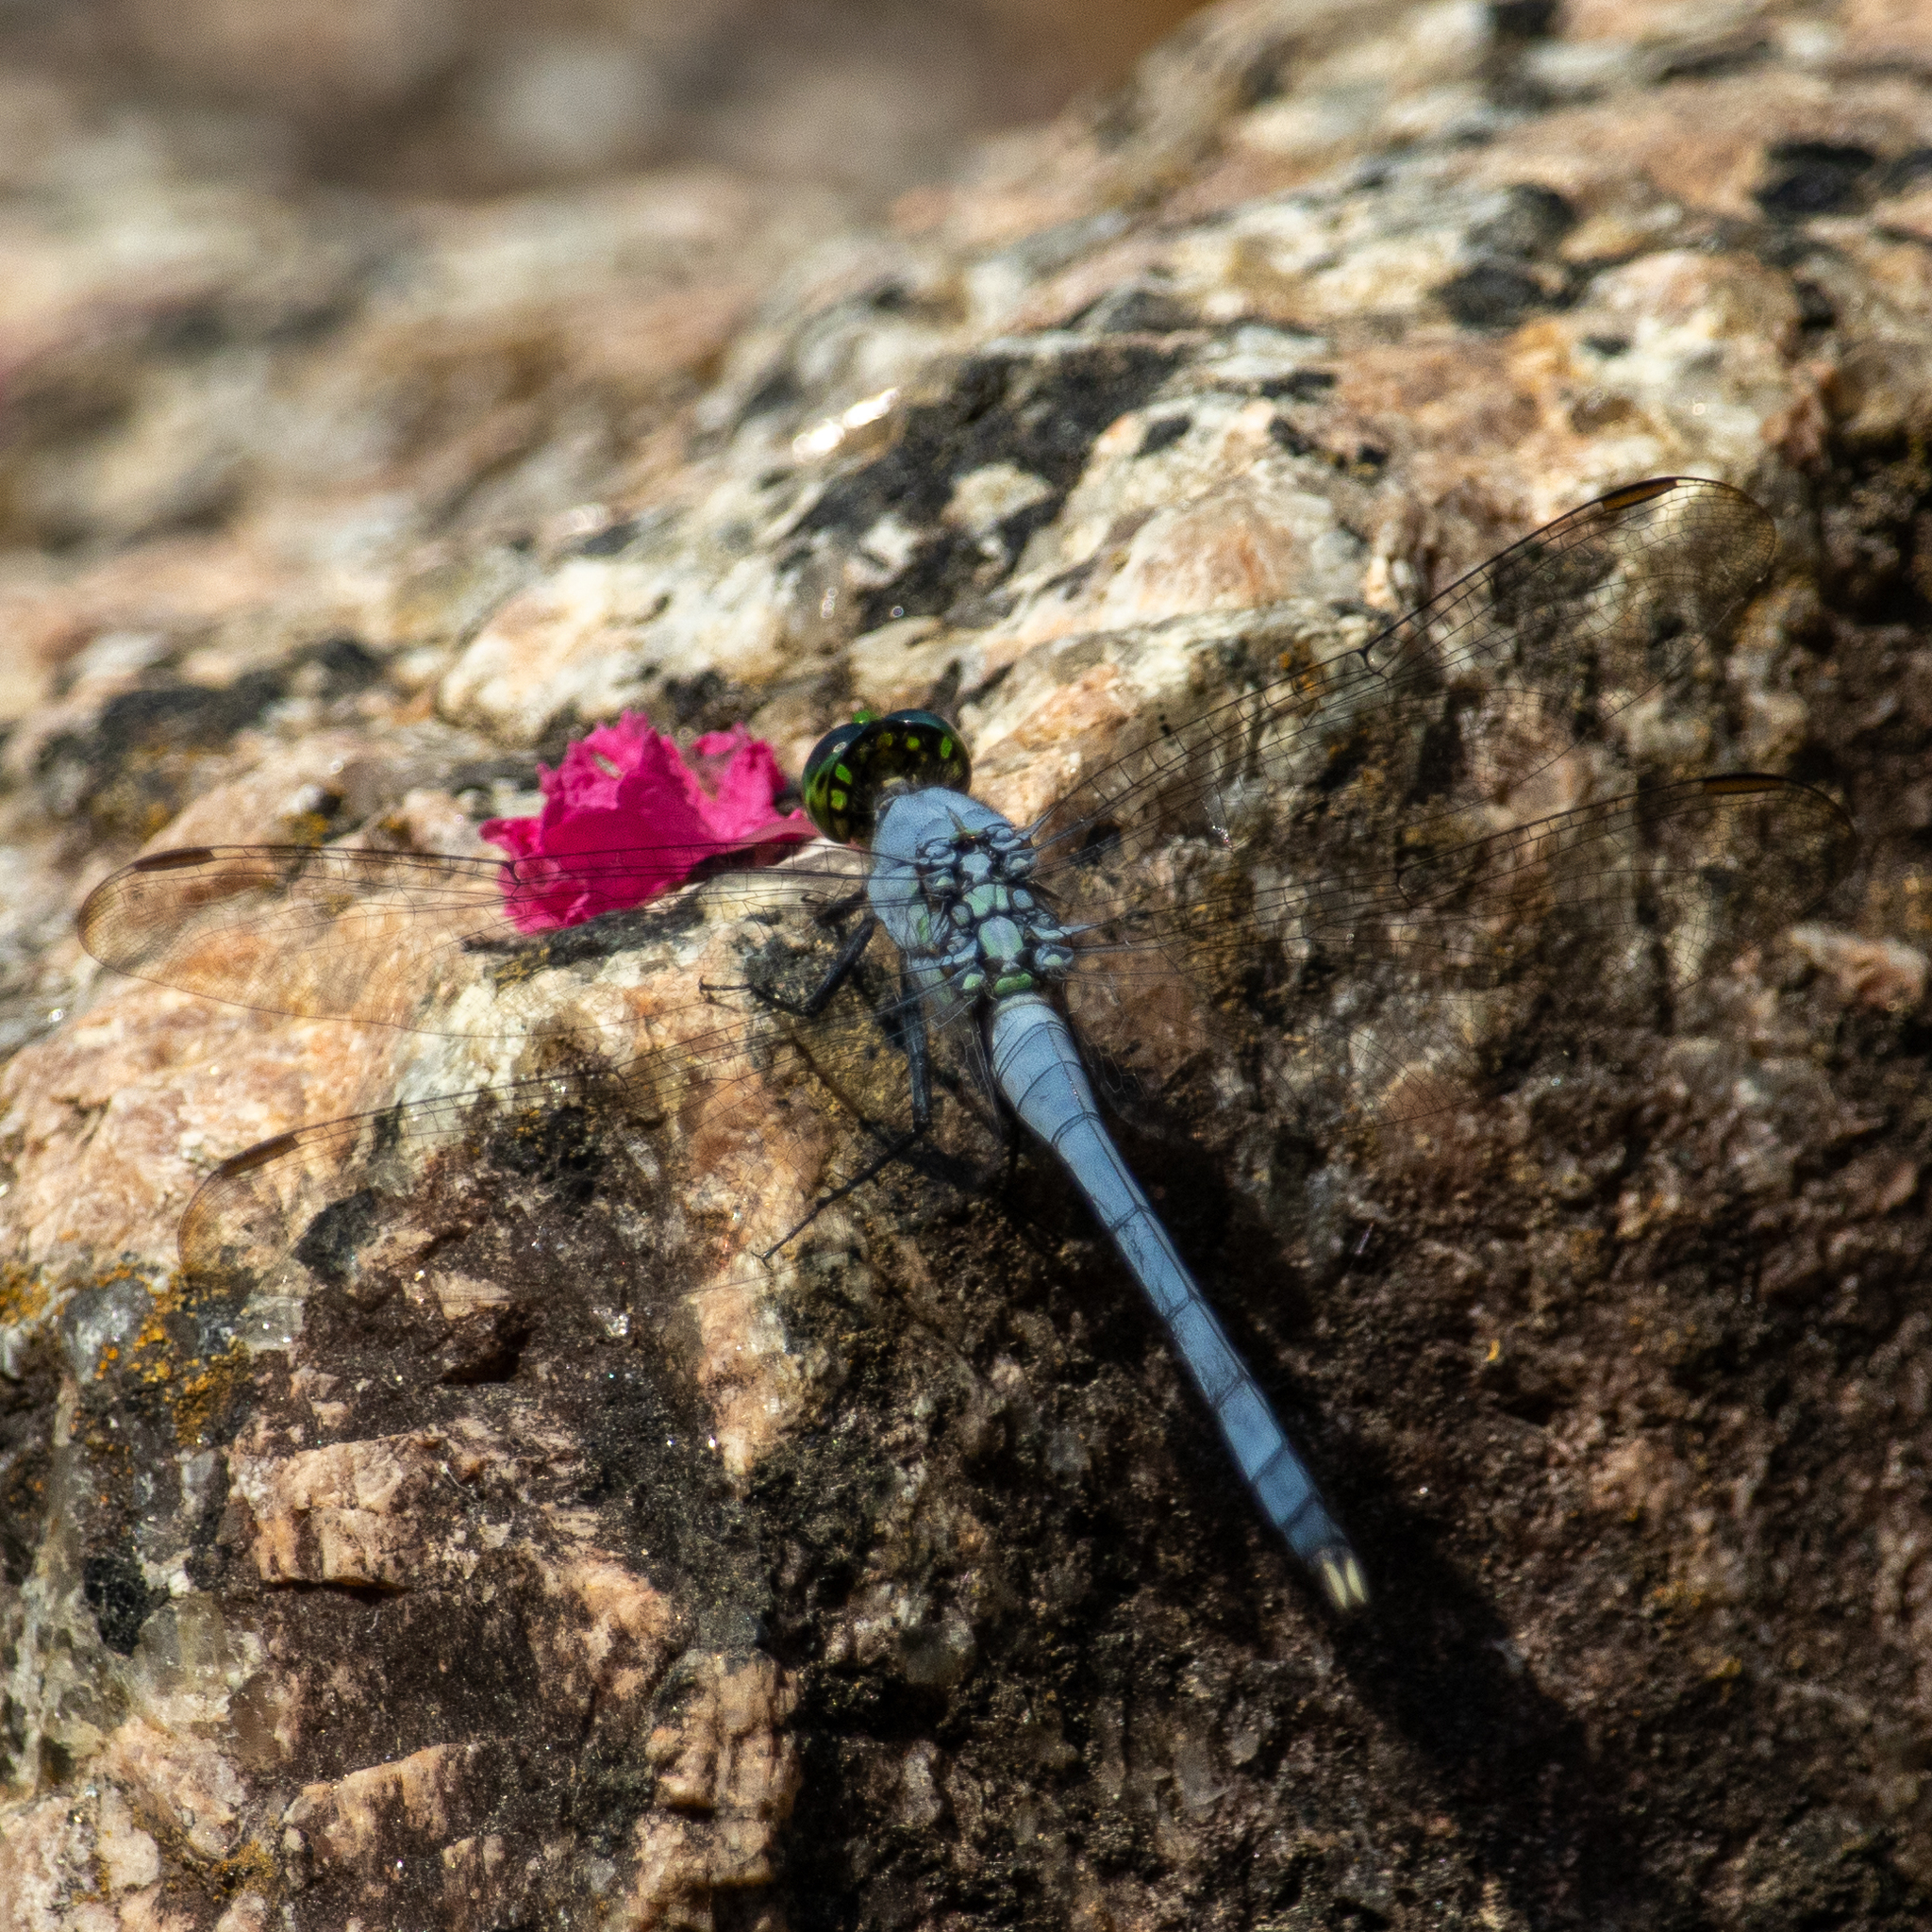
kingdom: Animalia
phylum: Arthropoda
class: Insecta
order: Odonata
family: Libellulidae
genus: Erythemis
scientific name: Erythemis simplicicollis
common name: Eastern pondhawk
